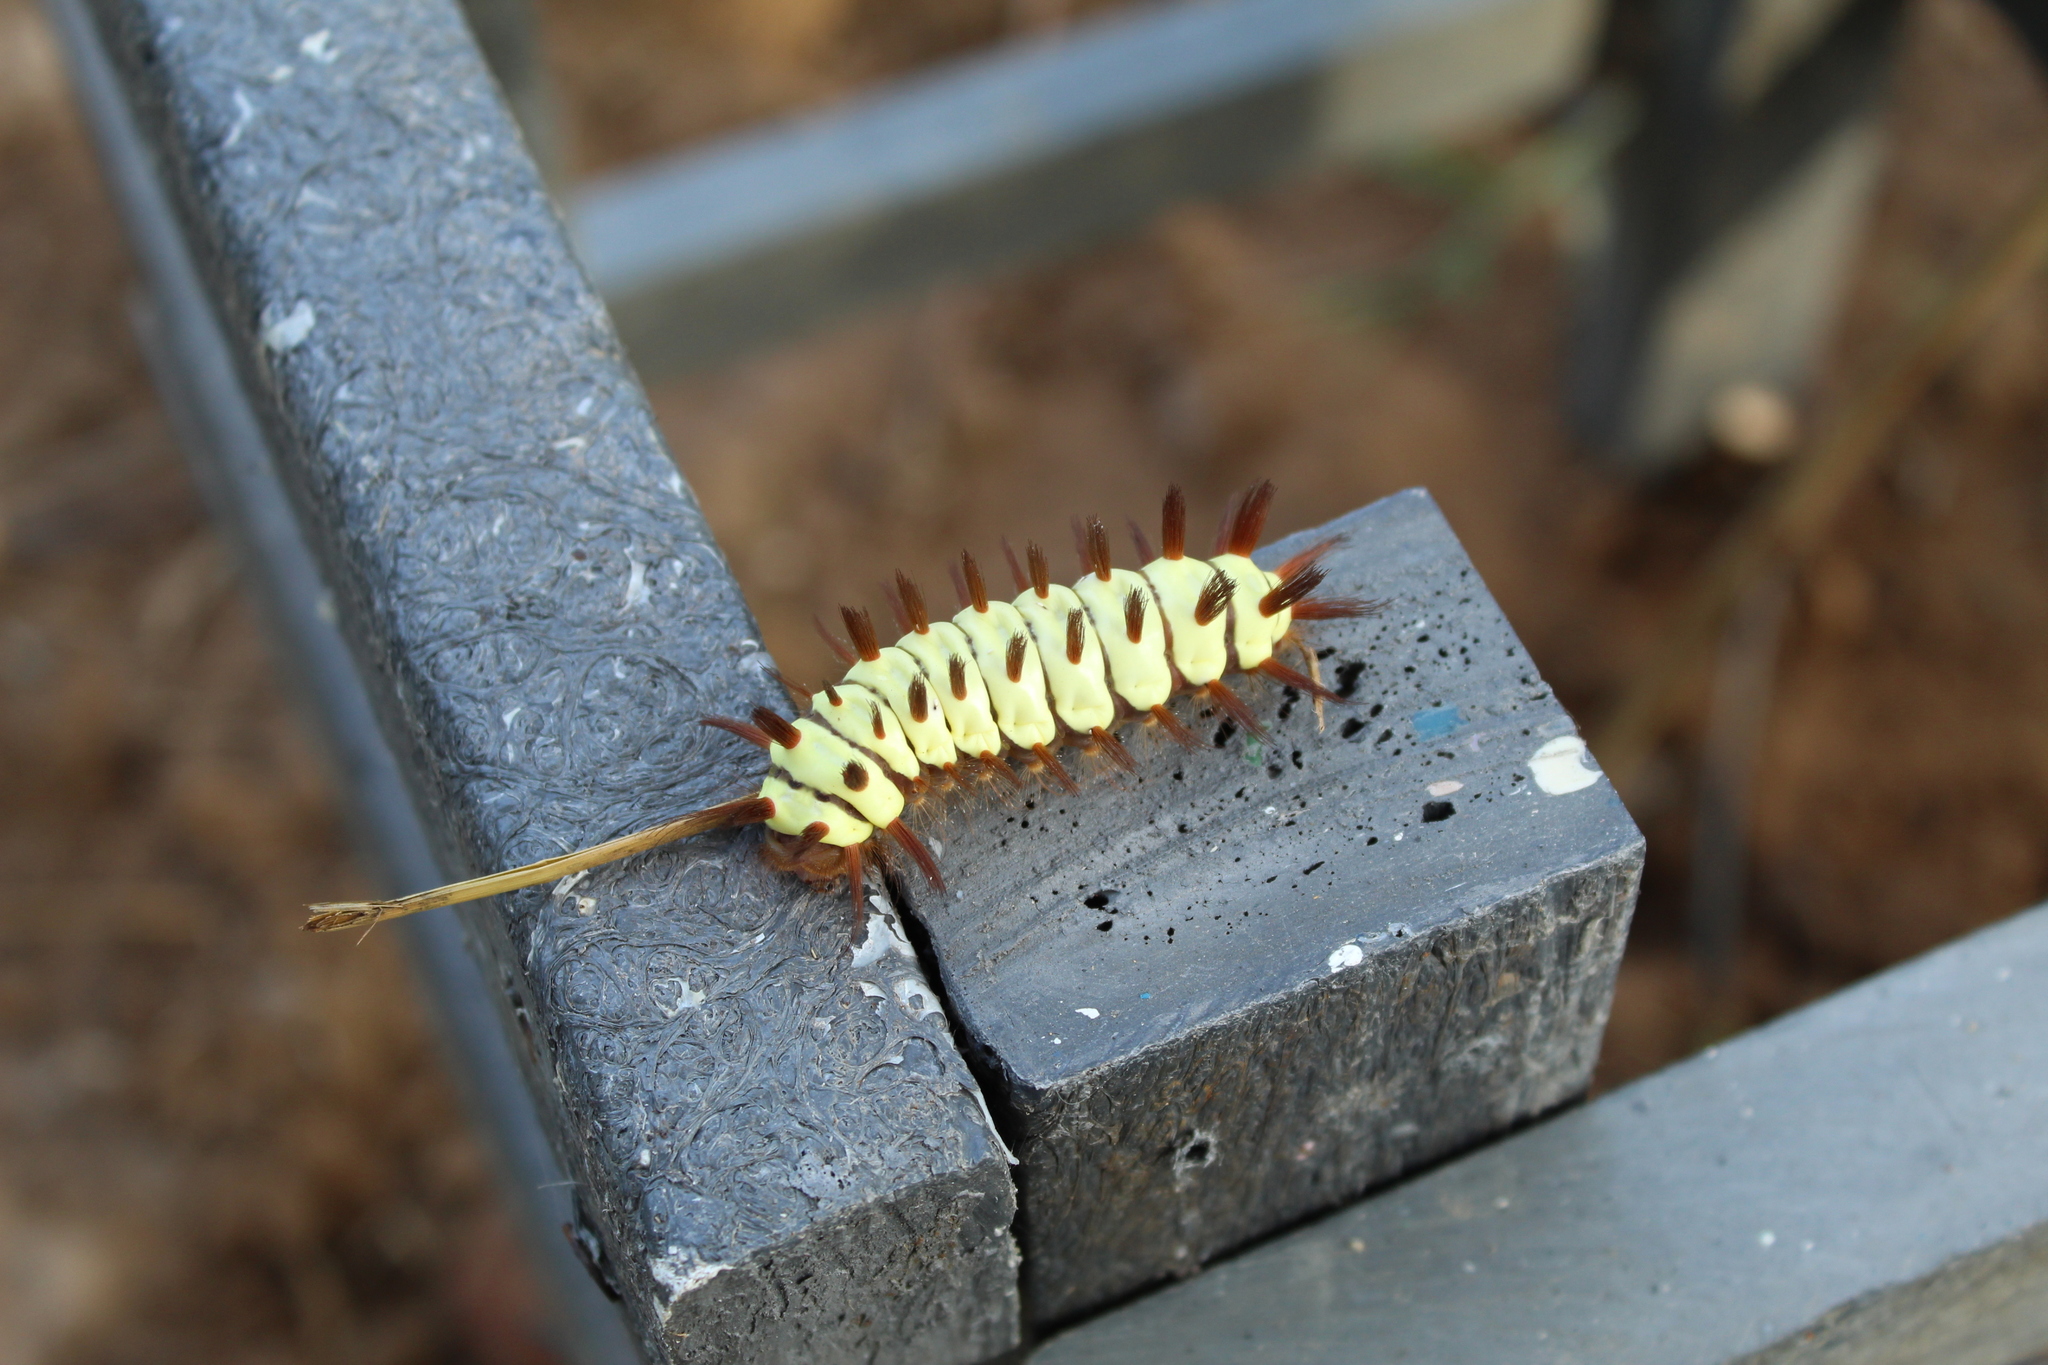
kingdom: Animalia
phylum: Arthropoda
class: Insecta
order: Lepidoptera
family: Megalopygidae
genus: Megalopyge
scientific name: Megalopyge lanata
